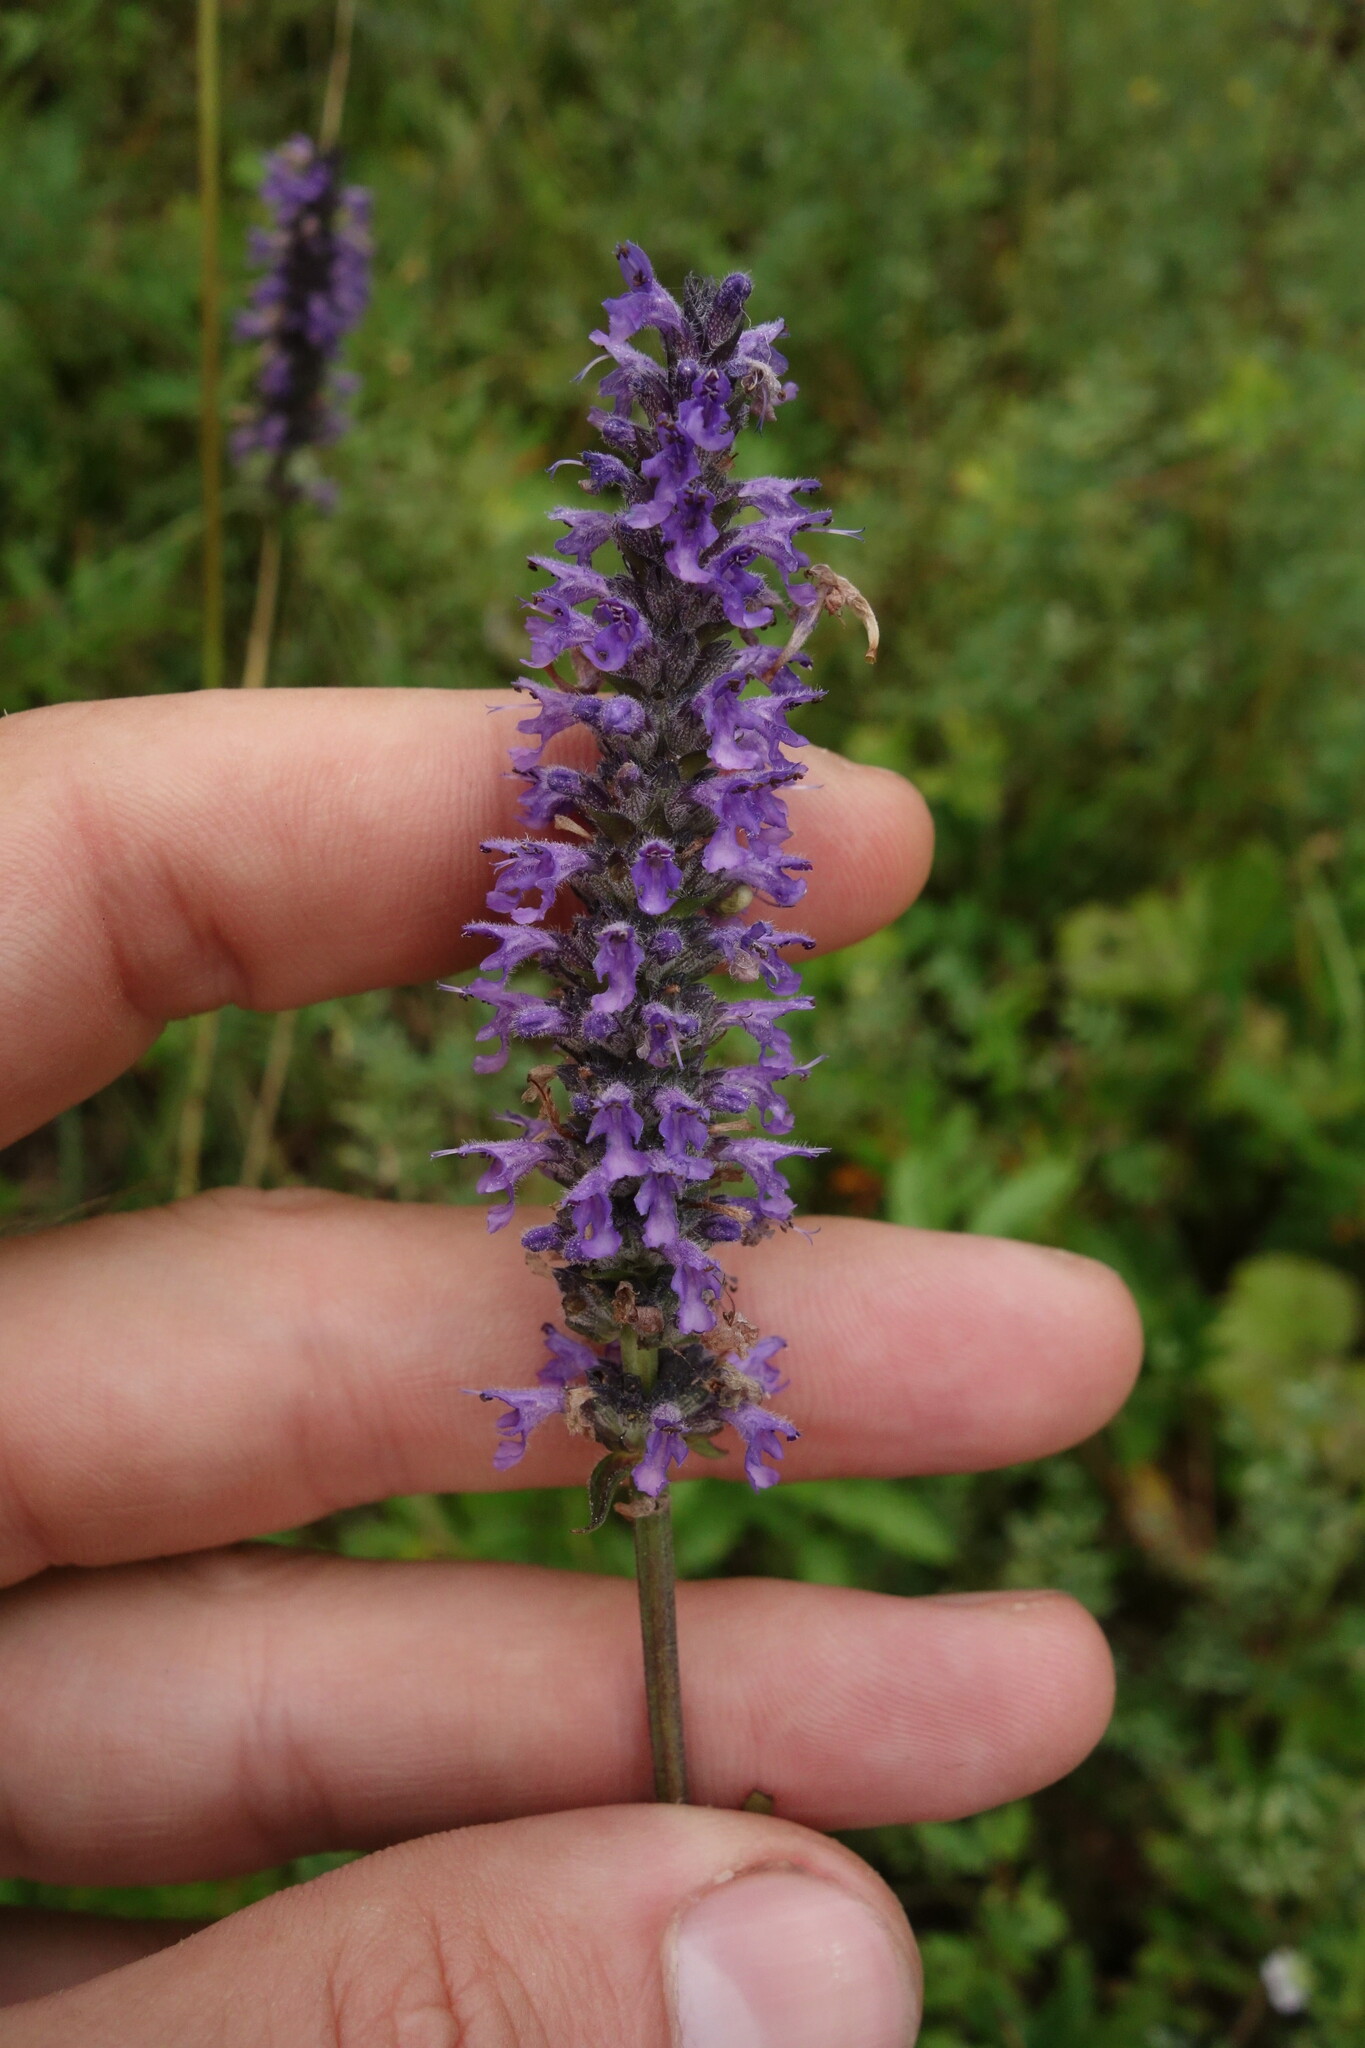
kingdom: Plantae
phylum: Tracheophyta
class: Magnoliopsida
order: Lamiales
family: Lamiaceae
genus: Nepeta
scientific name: Nepeta multifida
